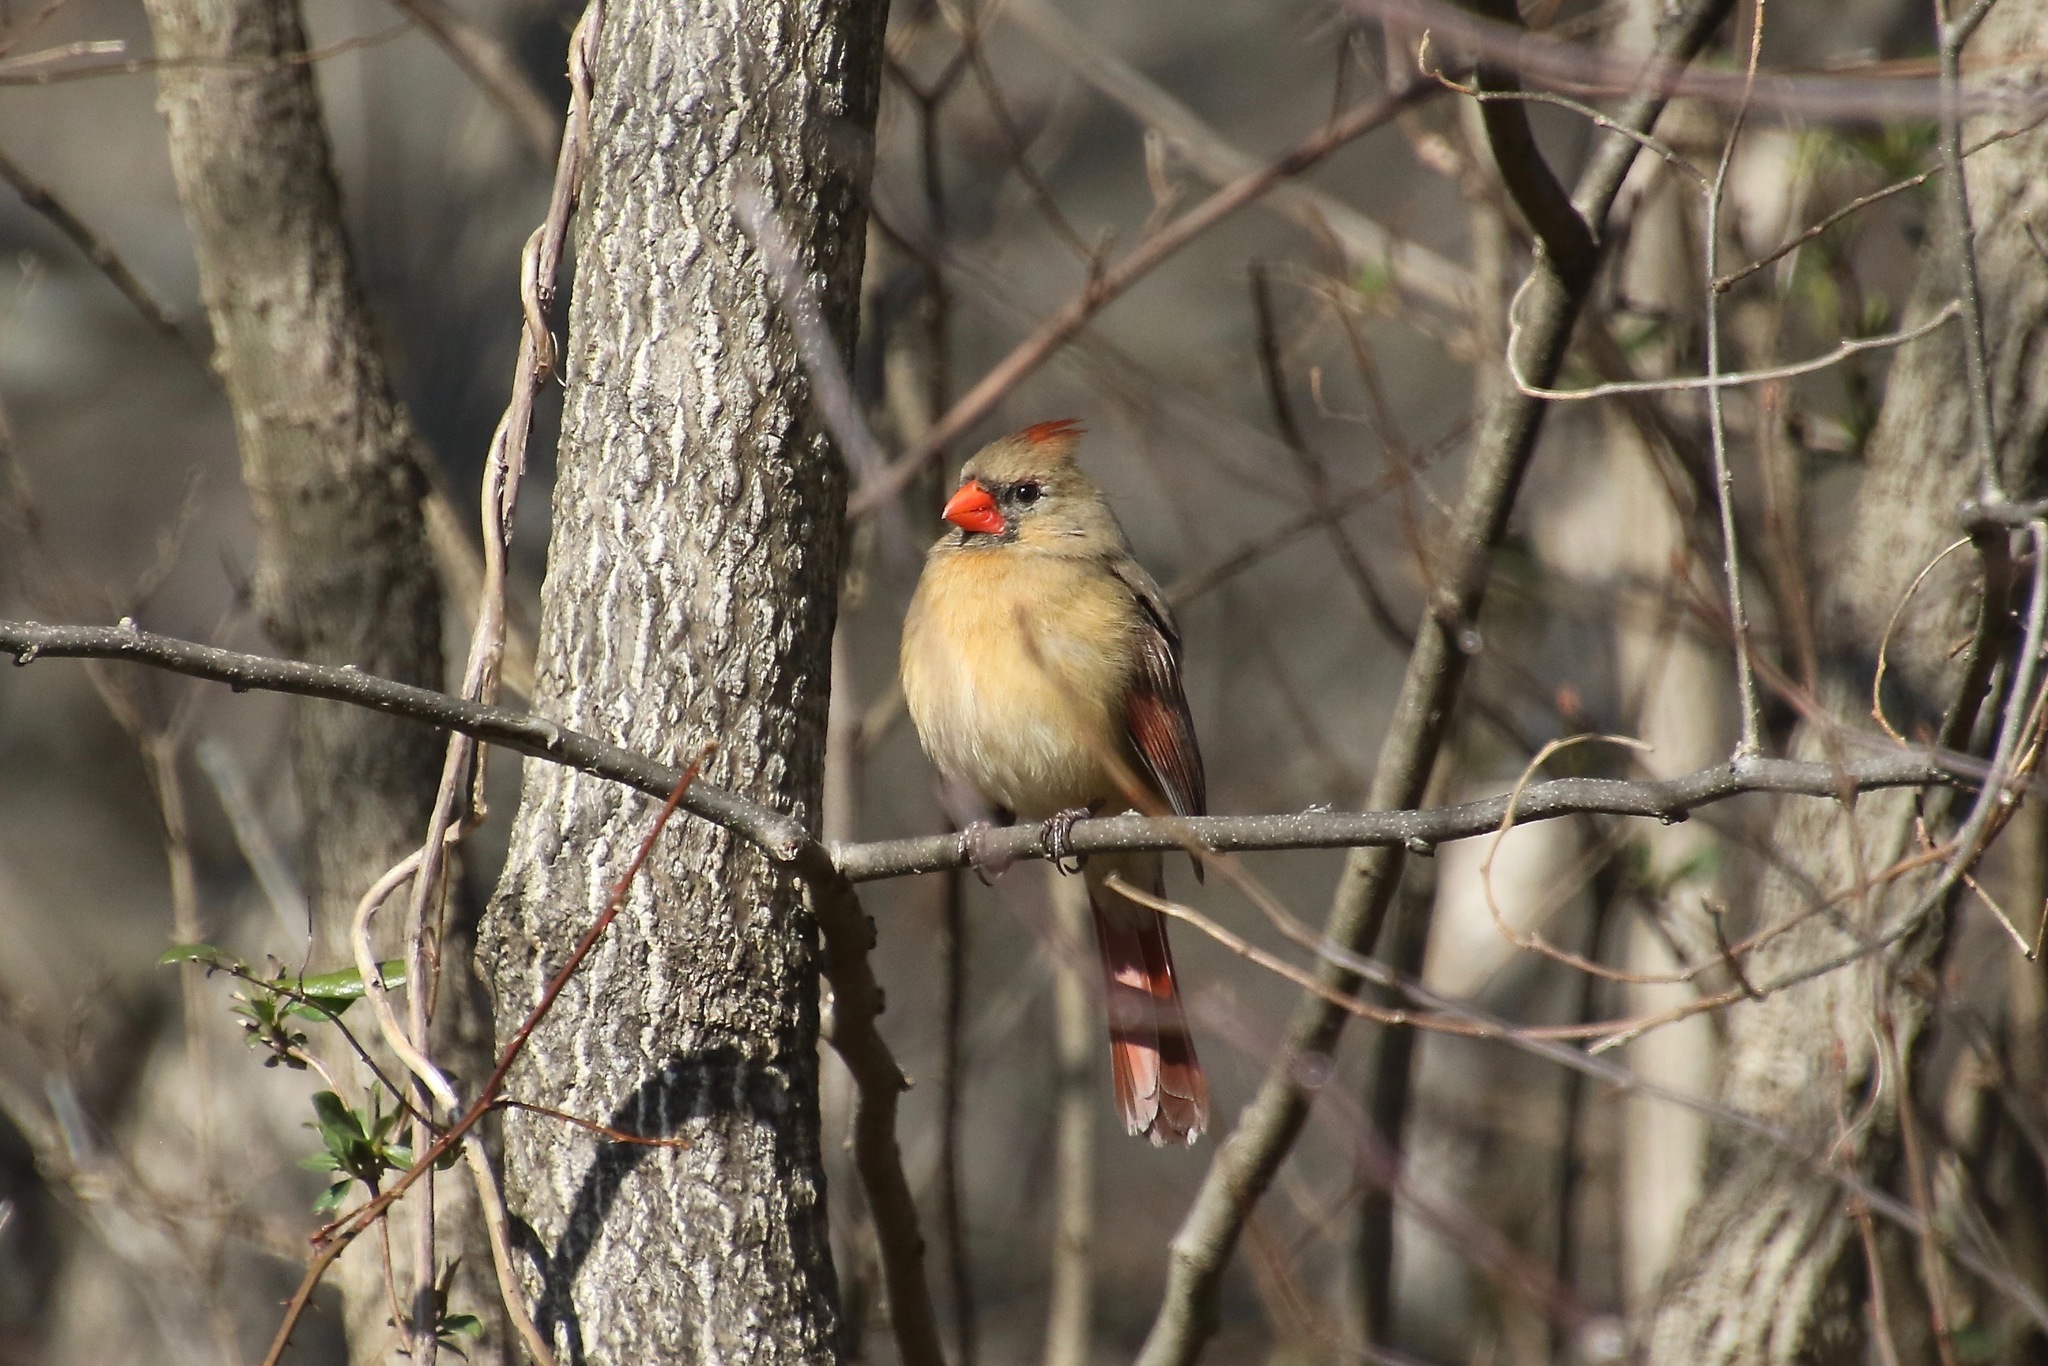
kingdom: Animalia
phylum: Chordata
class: Aves
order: Passeriformes
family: Cardinalidae
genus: Cardinalis
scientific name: Cardinalis cardinalis
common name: Northern cardinal
